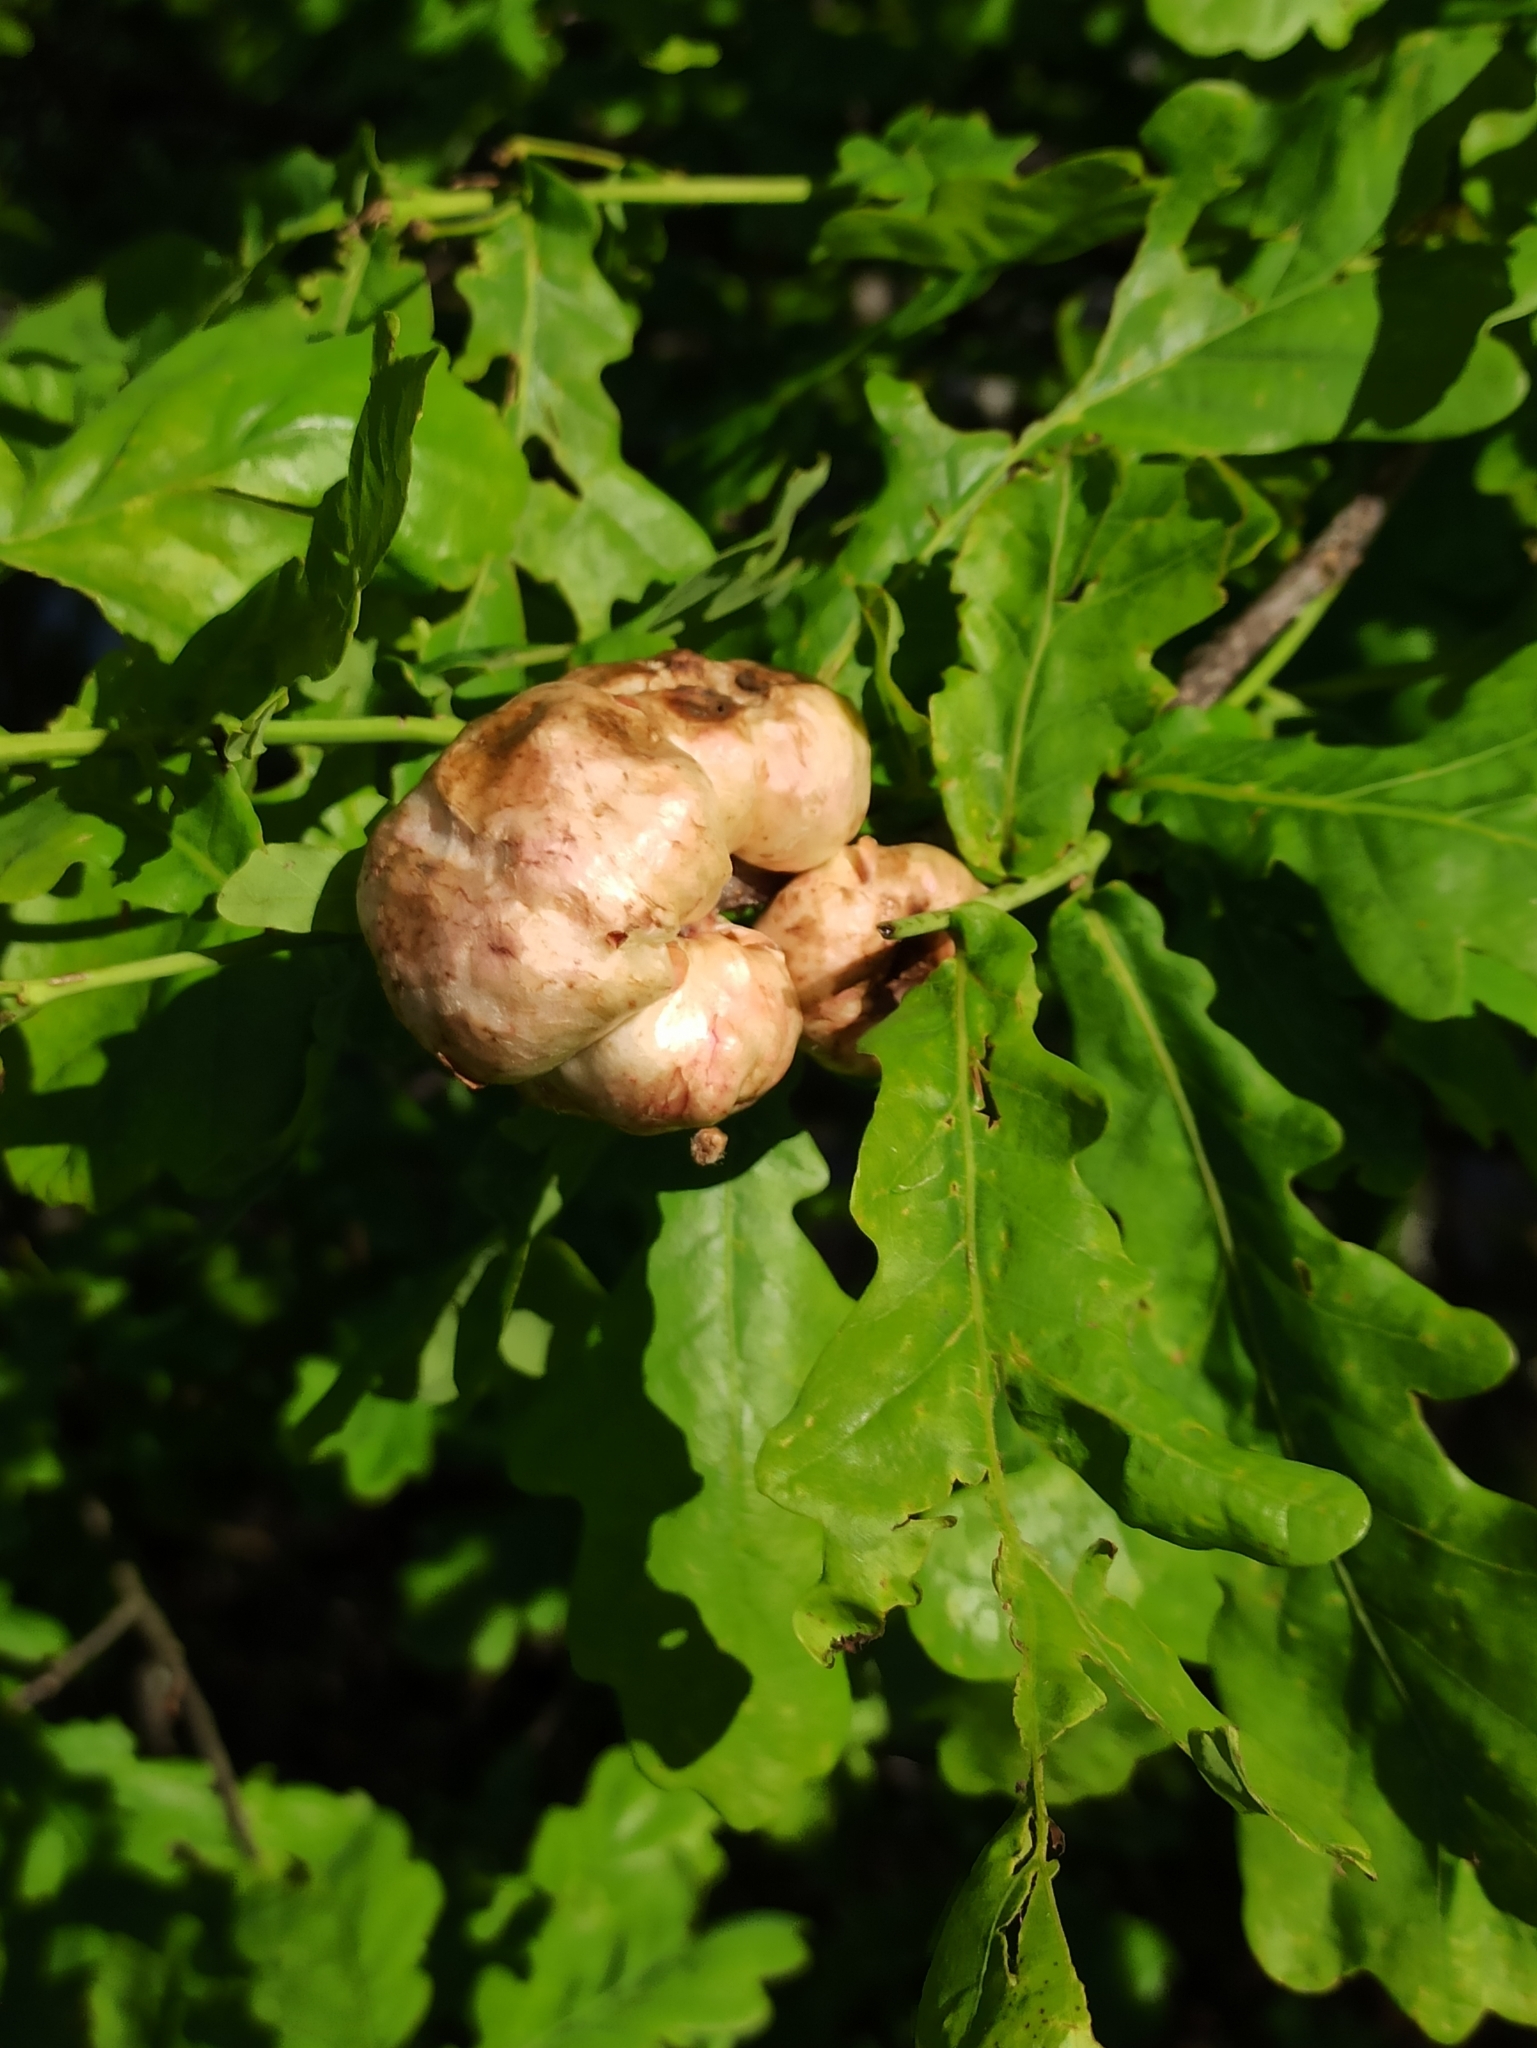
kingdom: Animalia
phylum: Arthropoda
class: Insecta
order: Hymenoptera
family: Cynipidae
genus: Biorhiza
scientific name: Biorhiza pallida
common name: Oak apple
